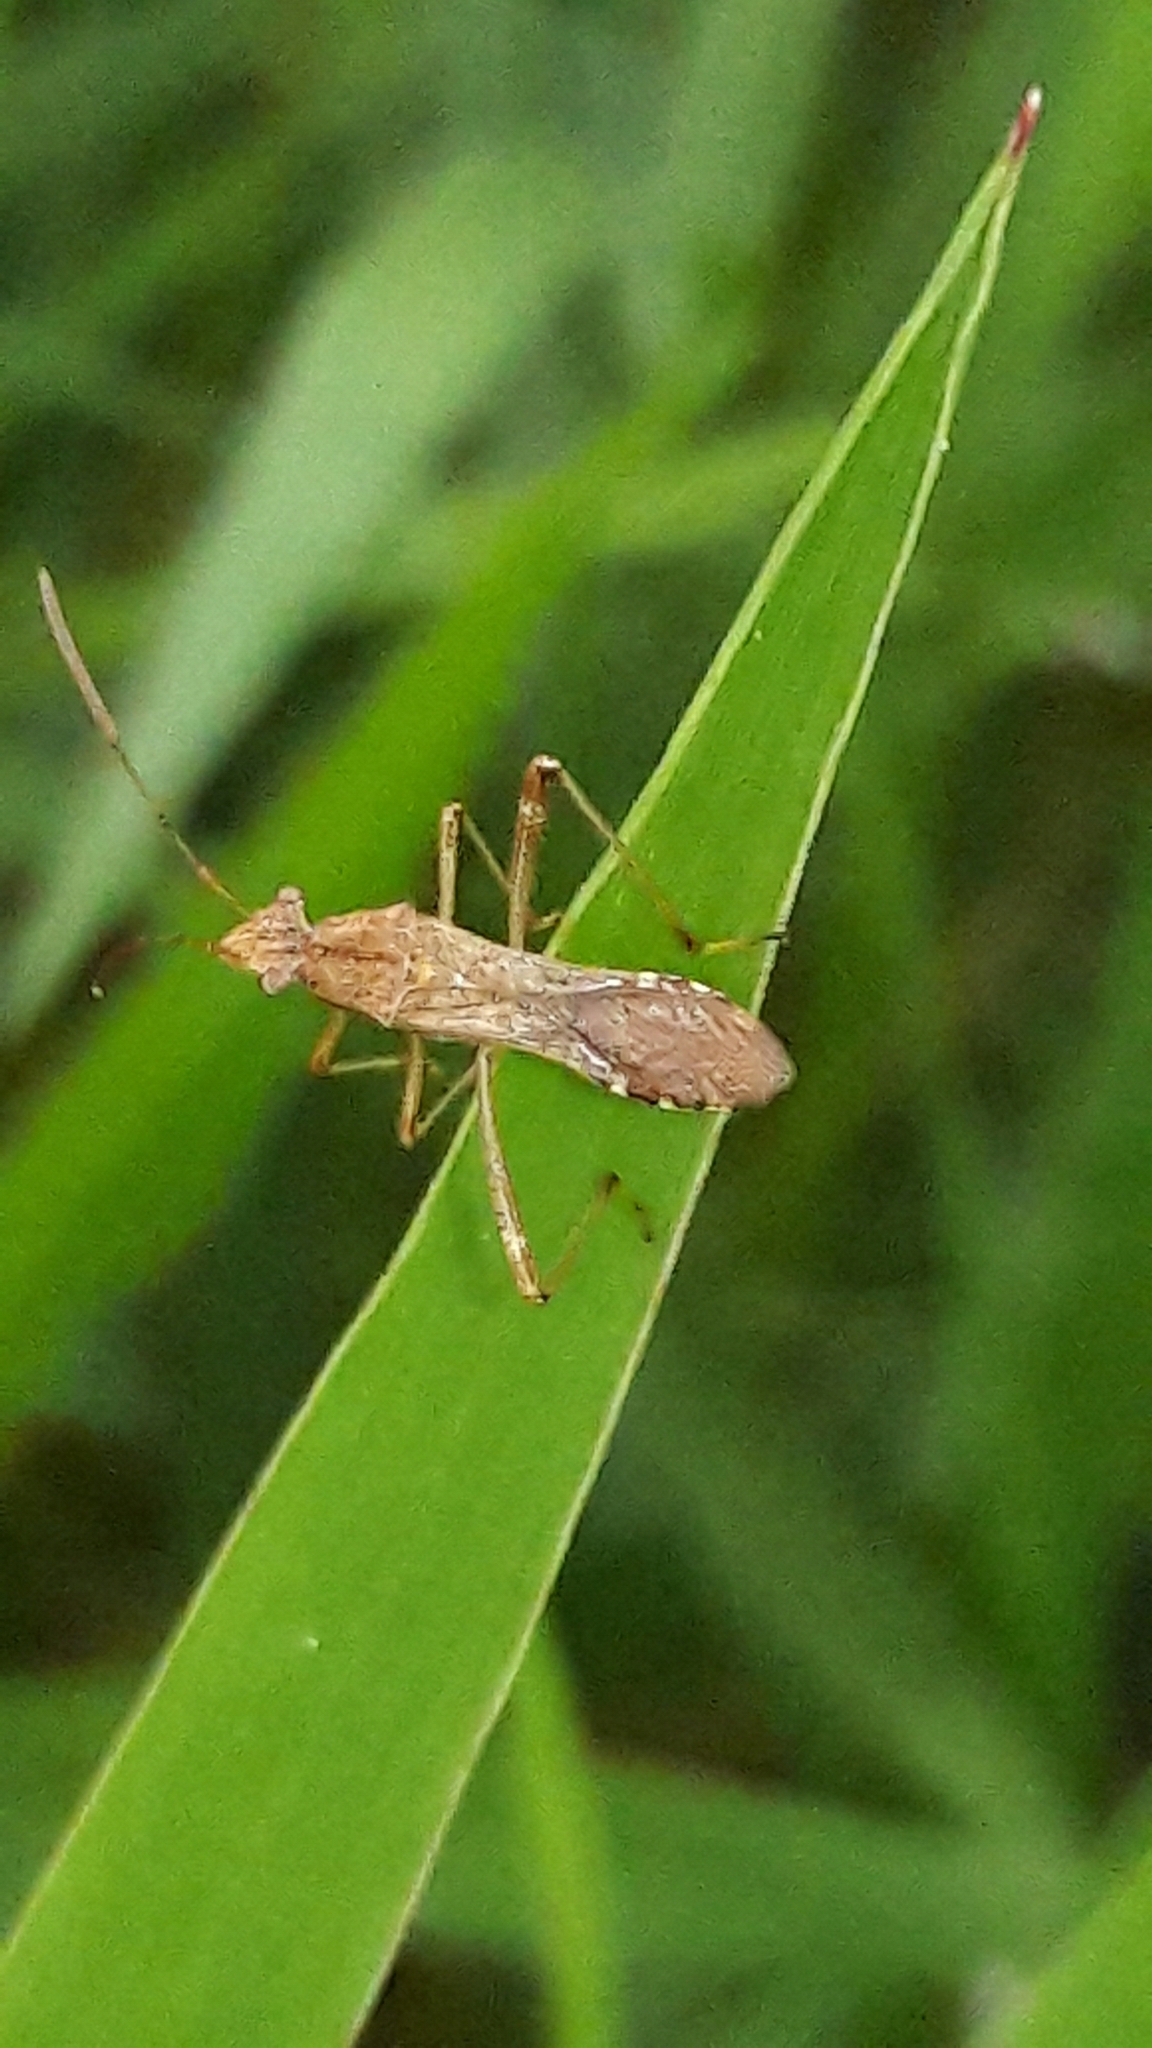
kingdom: Animalia
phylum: Arthropoda
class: Insecta
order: Hemiptera
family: Alydidae
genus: Neomegalotomus
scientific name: Neomegalotomus parvus
